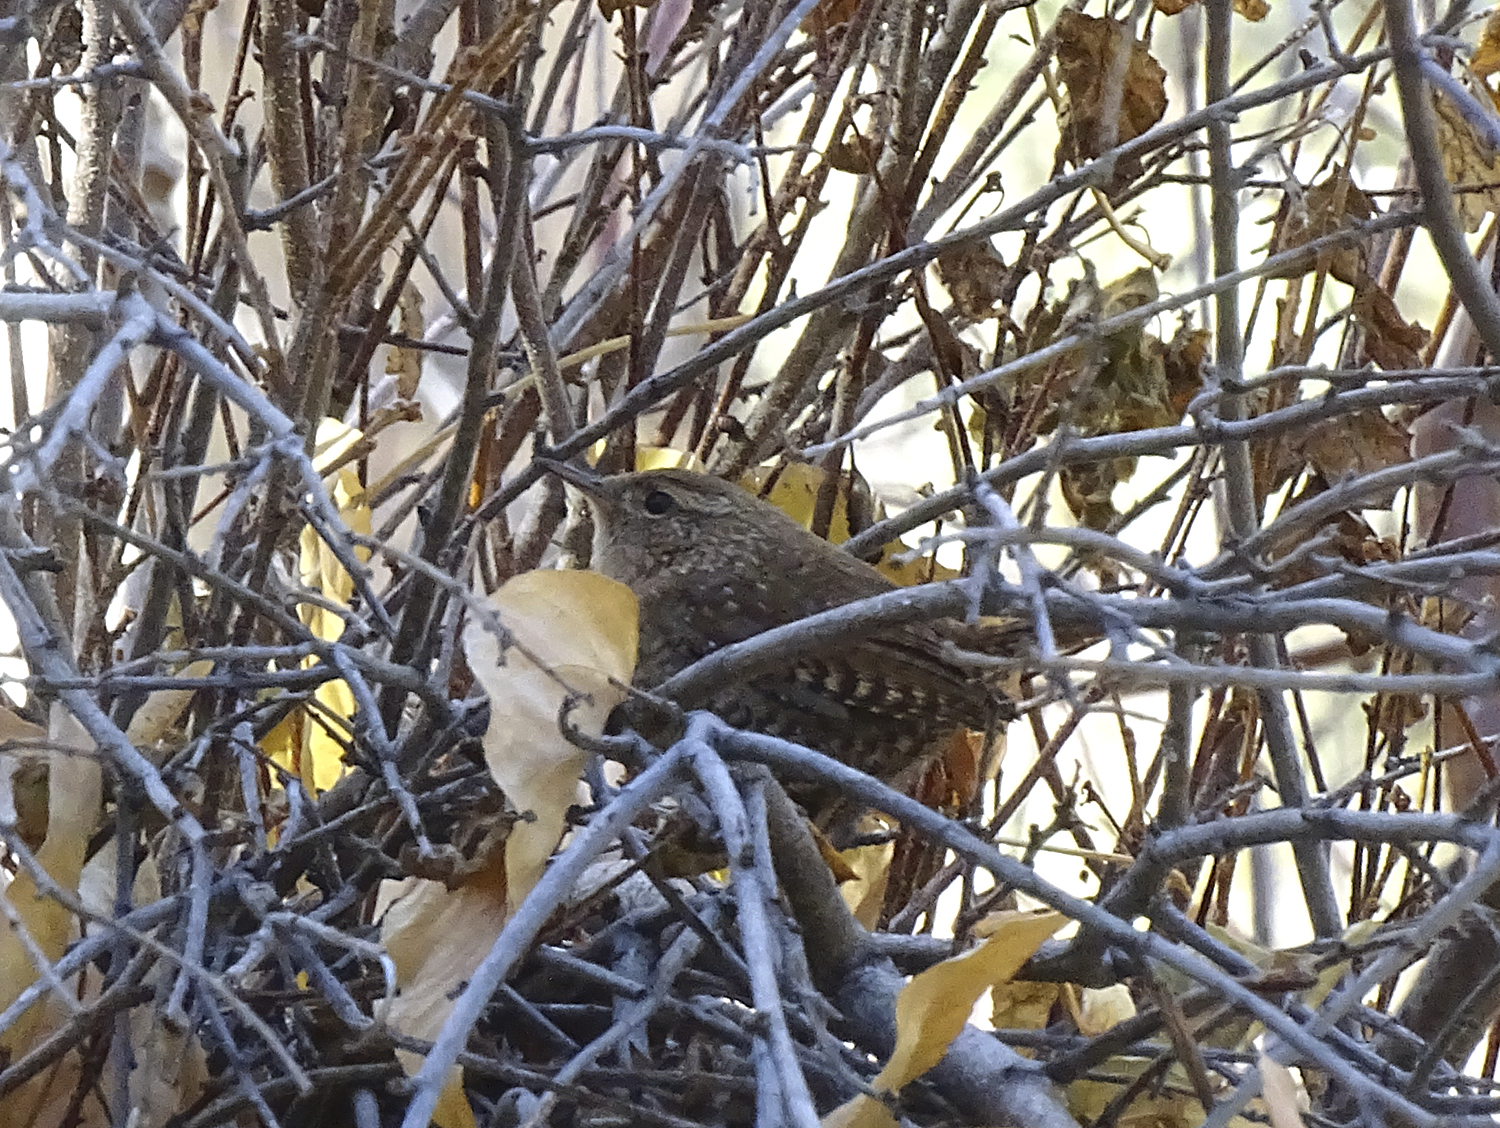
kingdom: Animalia
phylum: Chordata
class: Aves
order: Passeriformes
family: Troglodytidae
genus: Troglodytes
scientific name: Troglodytes hiemalis
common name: Winter wren
